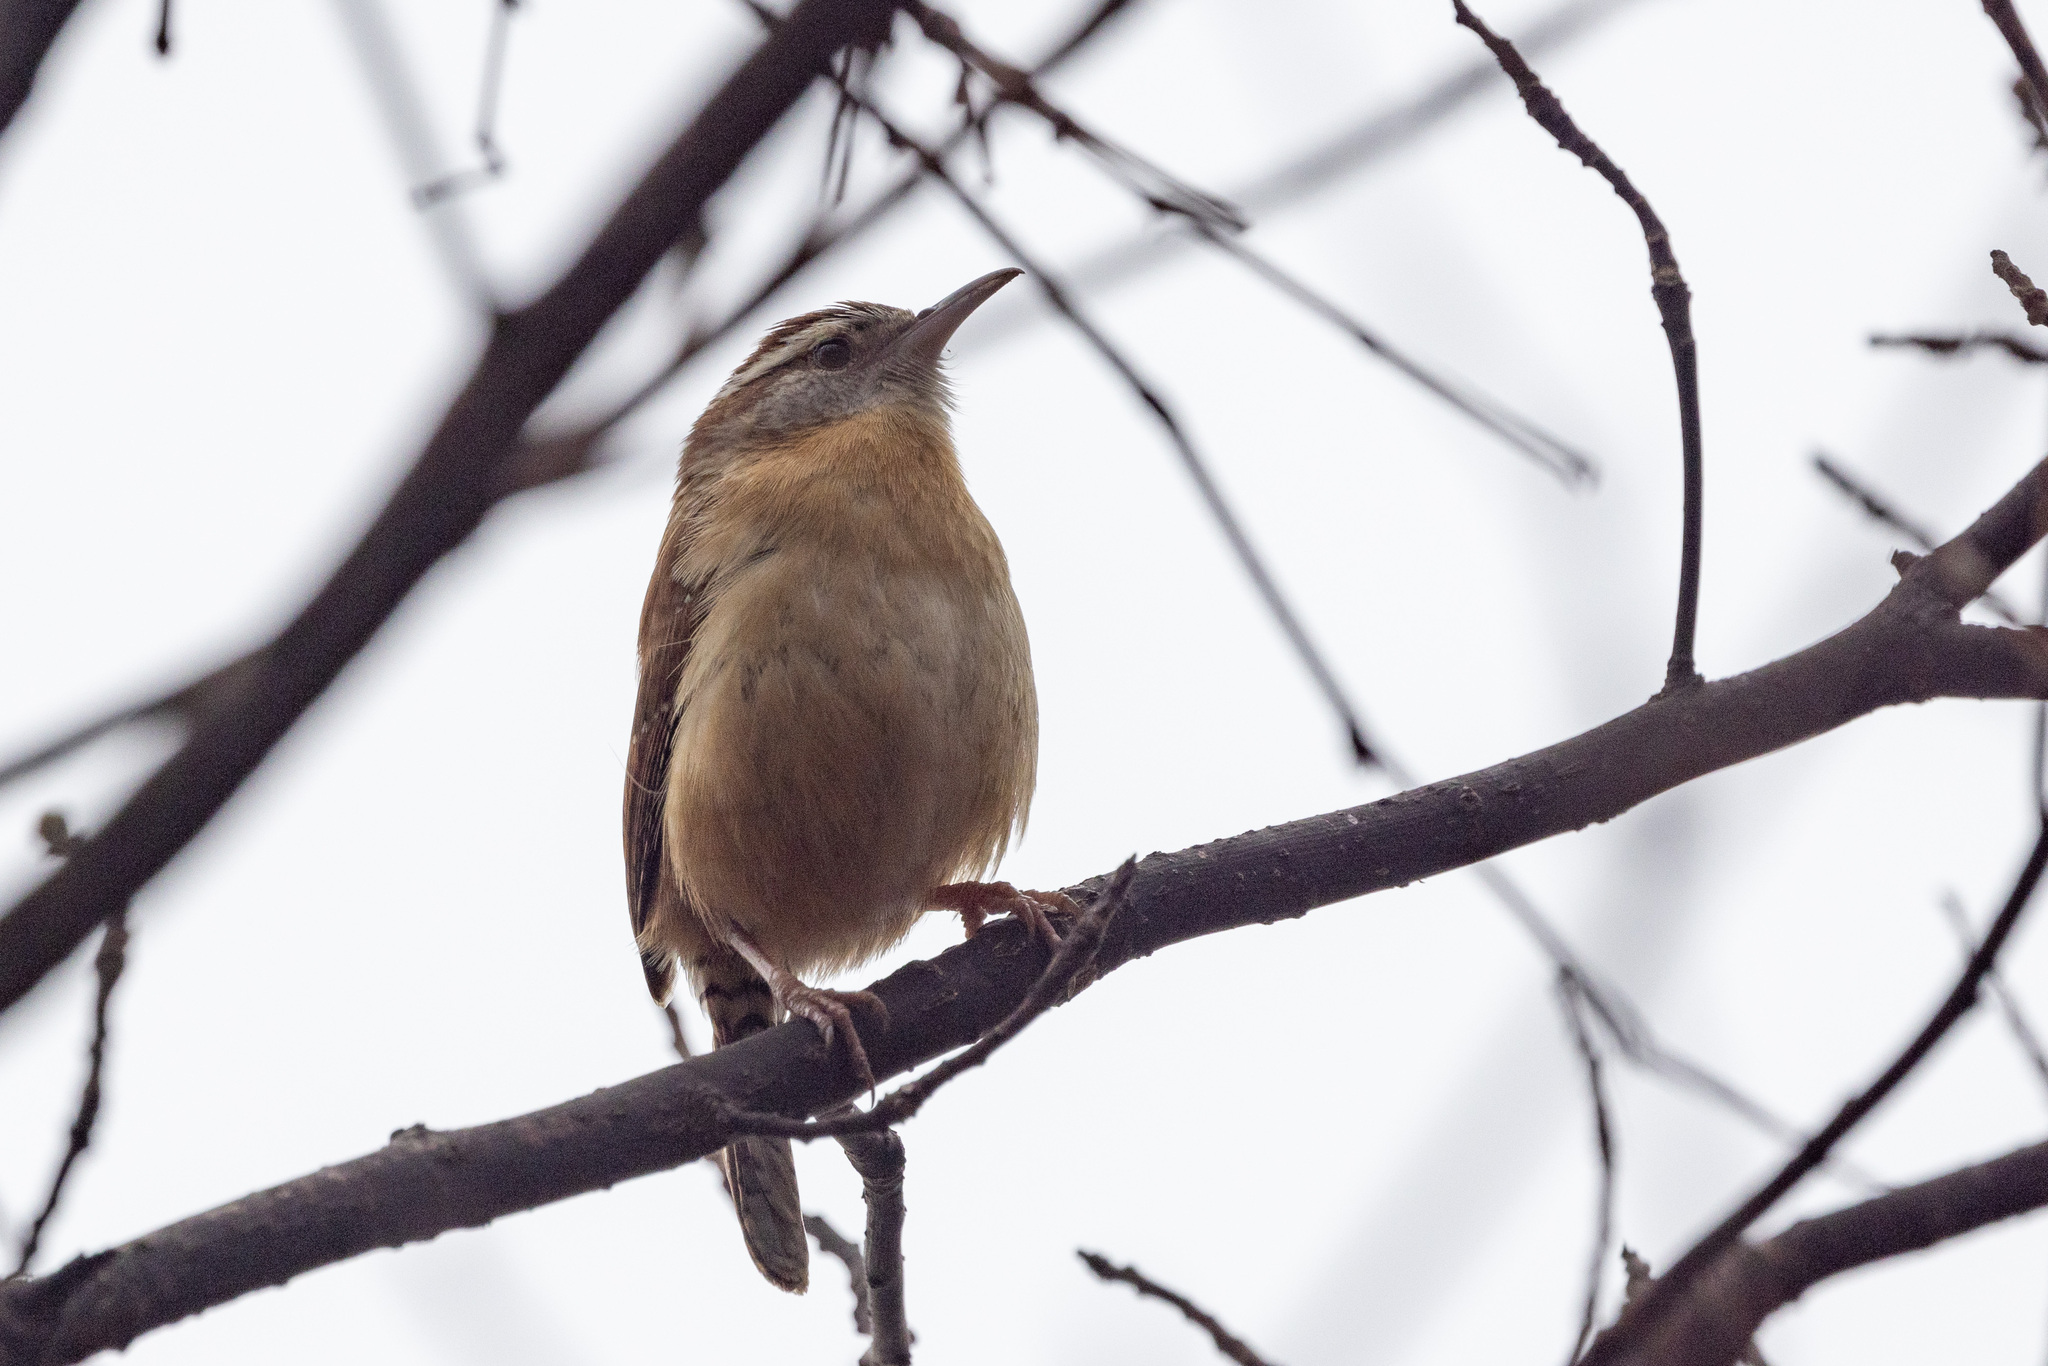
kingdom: Animalia
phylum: Chordata
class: Aves
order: Passeriformes
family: Troglodytidae
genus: Thryothorus
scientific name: Thryothorus ludovicianus
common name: Carolina wren
